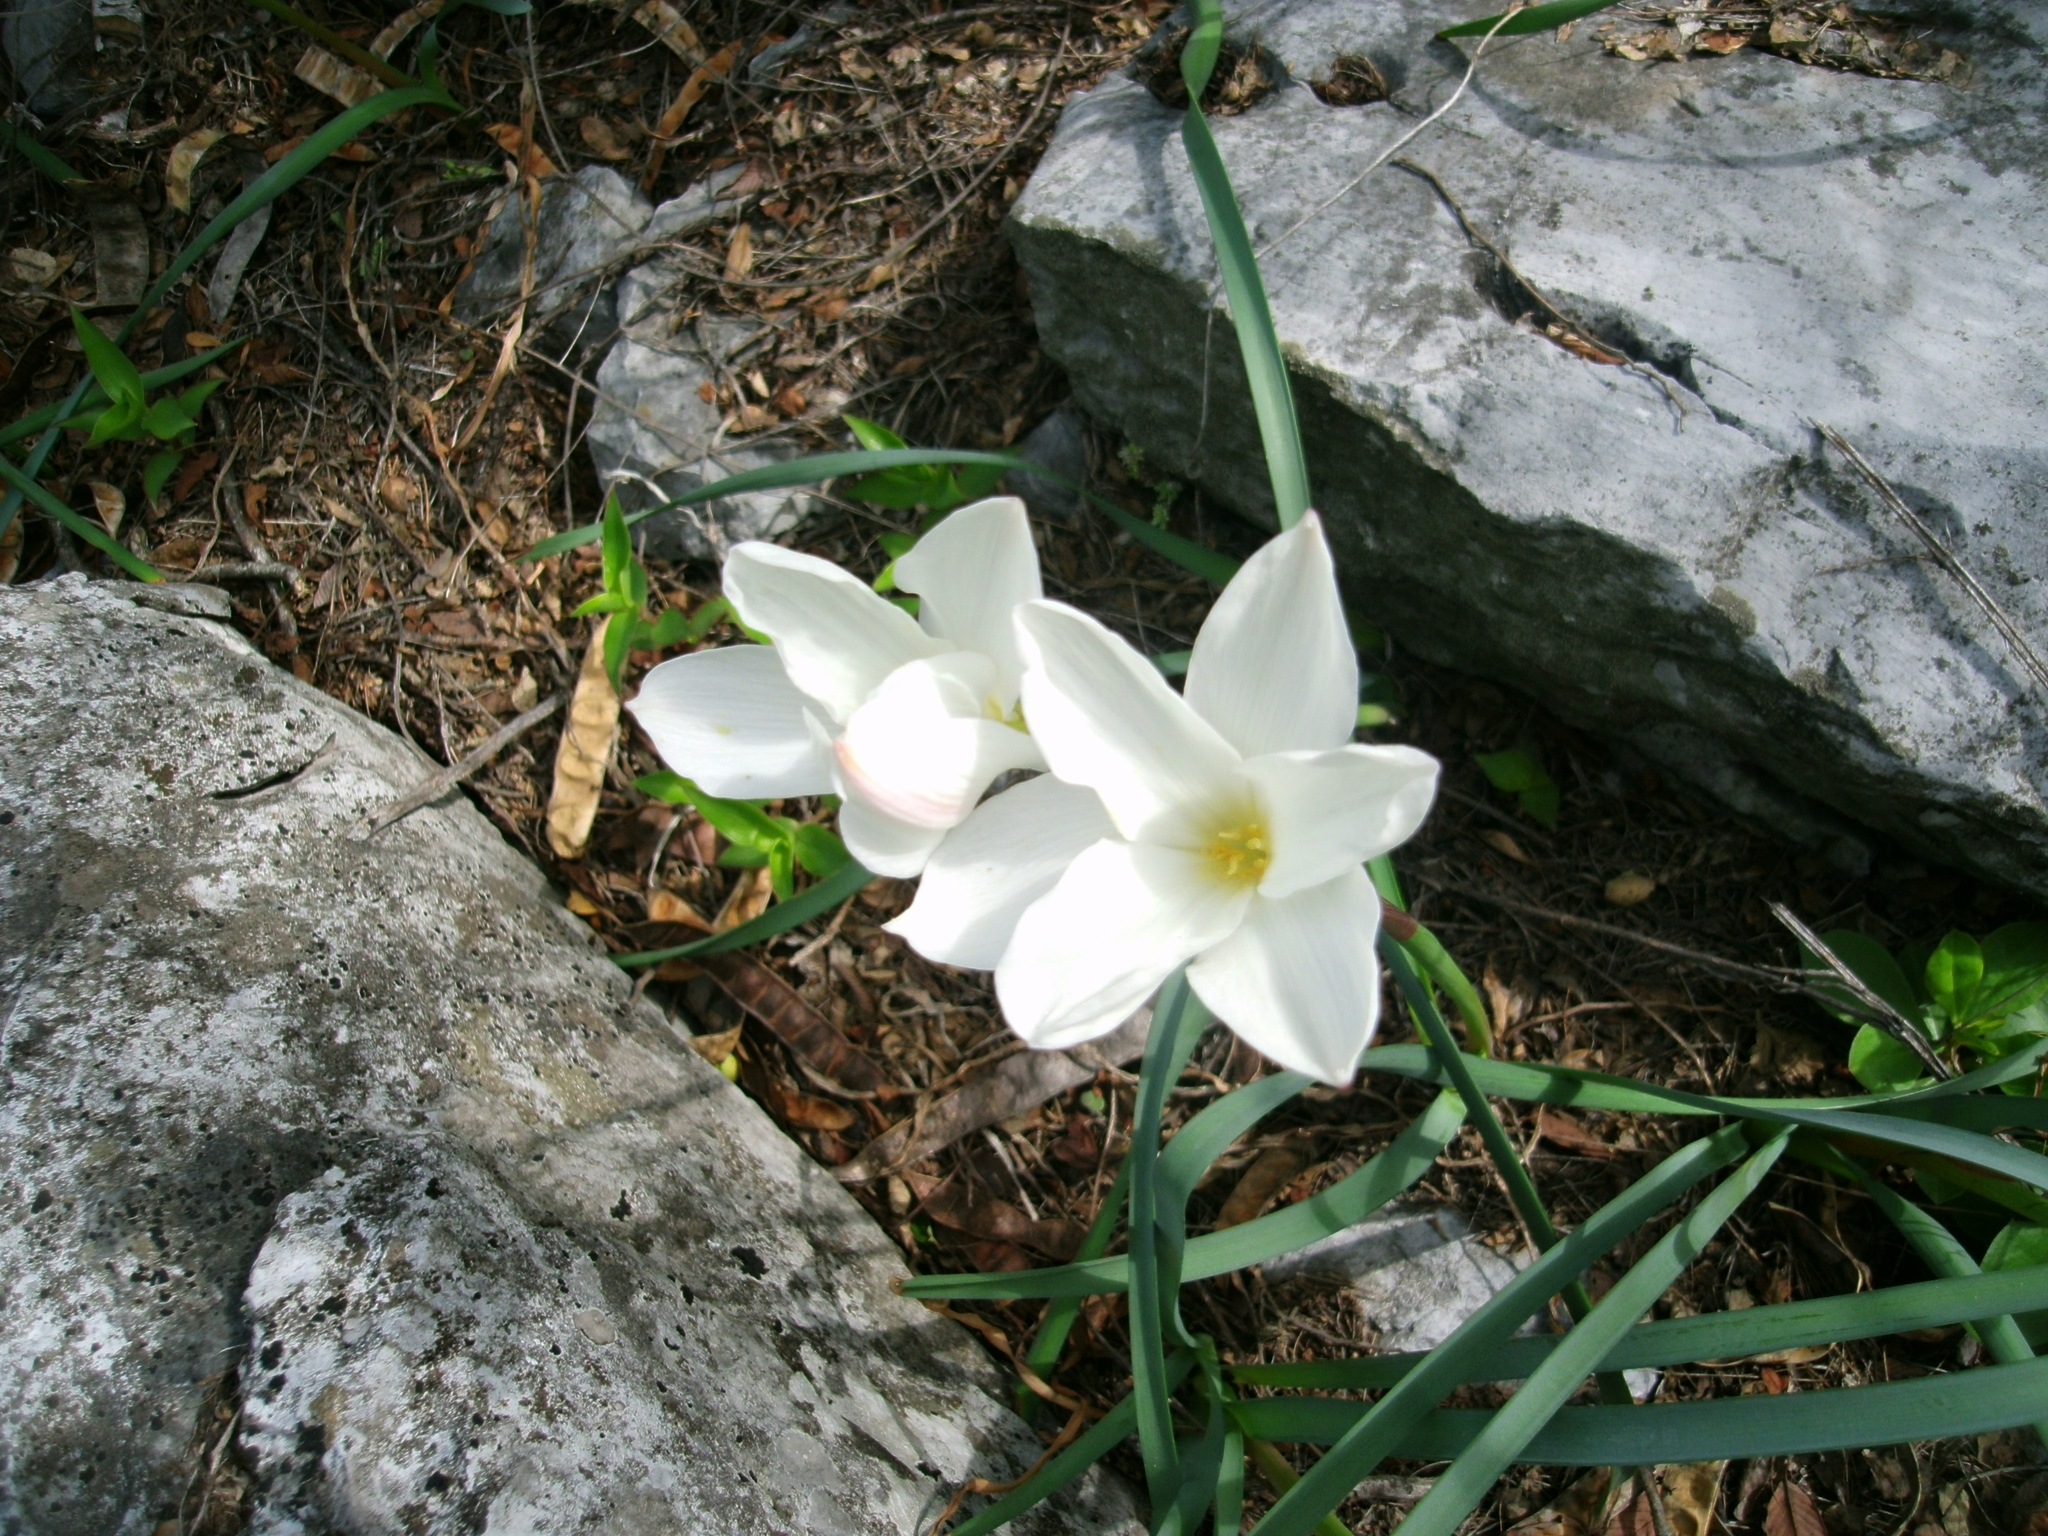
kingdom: Plantae
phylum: Tracheophyta
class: Liliopsida
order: Asparagales
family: Amaryllidaceae
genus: Zephyranthes
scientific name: Zephyranthes drummondii
